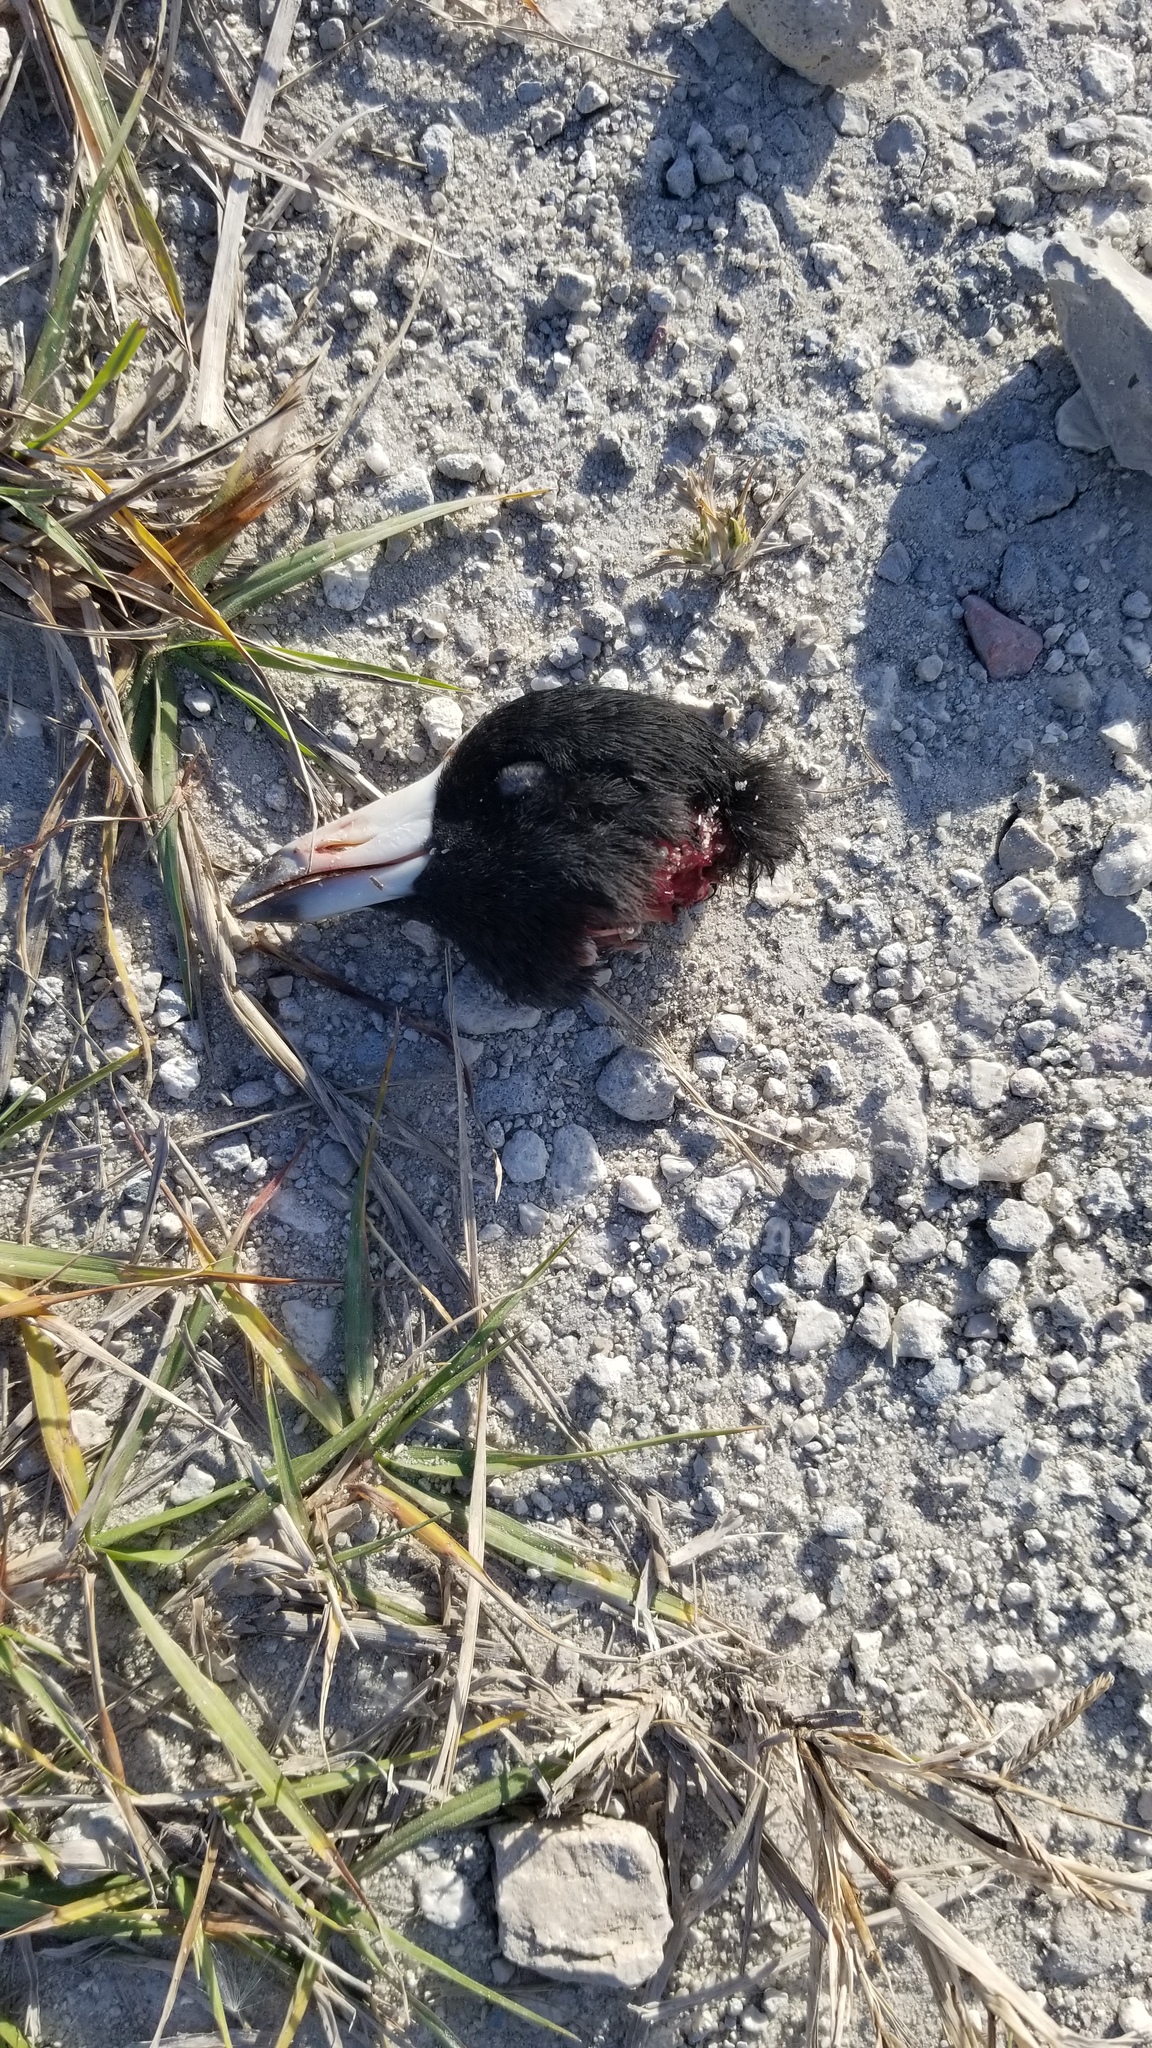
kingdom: Animalia
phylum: Chordata
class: Aves
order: Gruiformes
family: Rallidae
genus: Fulica
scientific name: Fulica americana
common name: American coot
